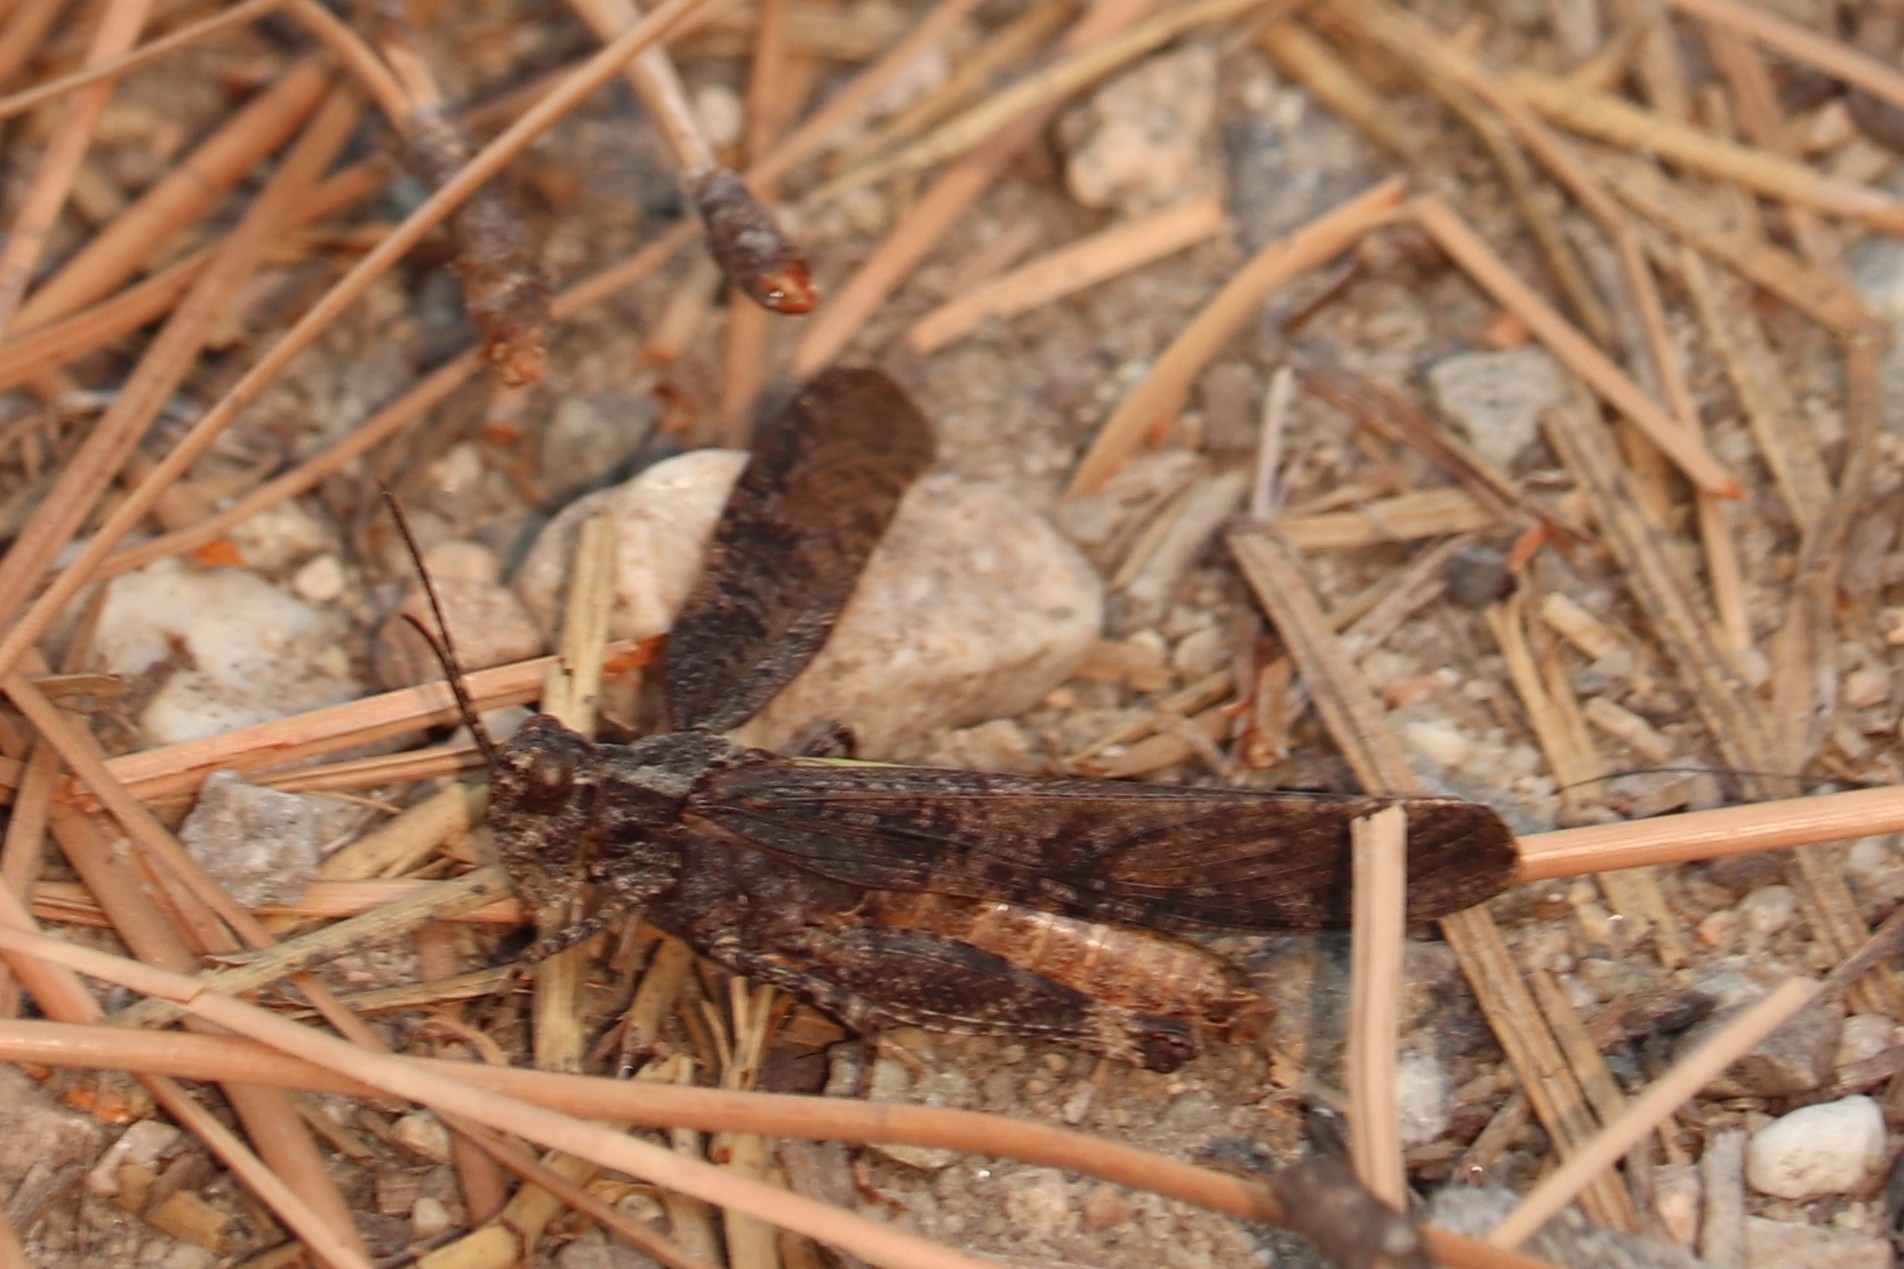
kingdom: Animalia
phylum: Arthropoda
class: Insecta
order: Orthoptera
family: Acrididae
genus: Trimerotropis
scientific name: Trimerotropis verruculata
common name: Crackling forest grasshopper
